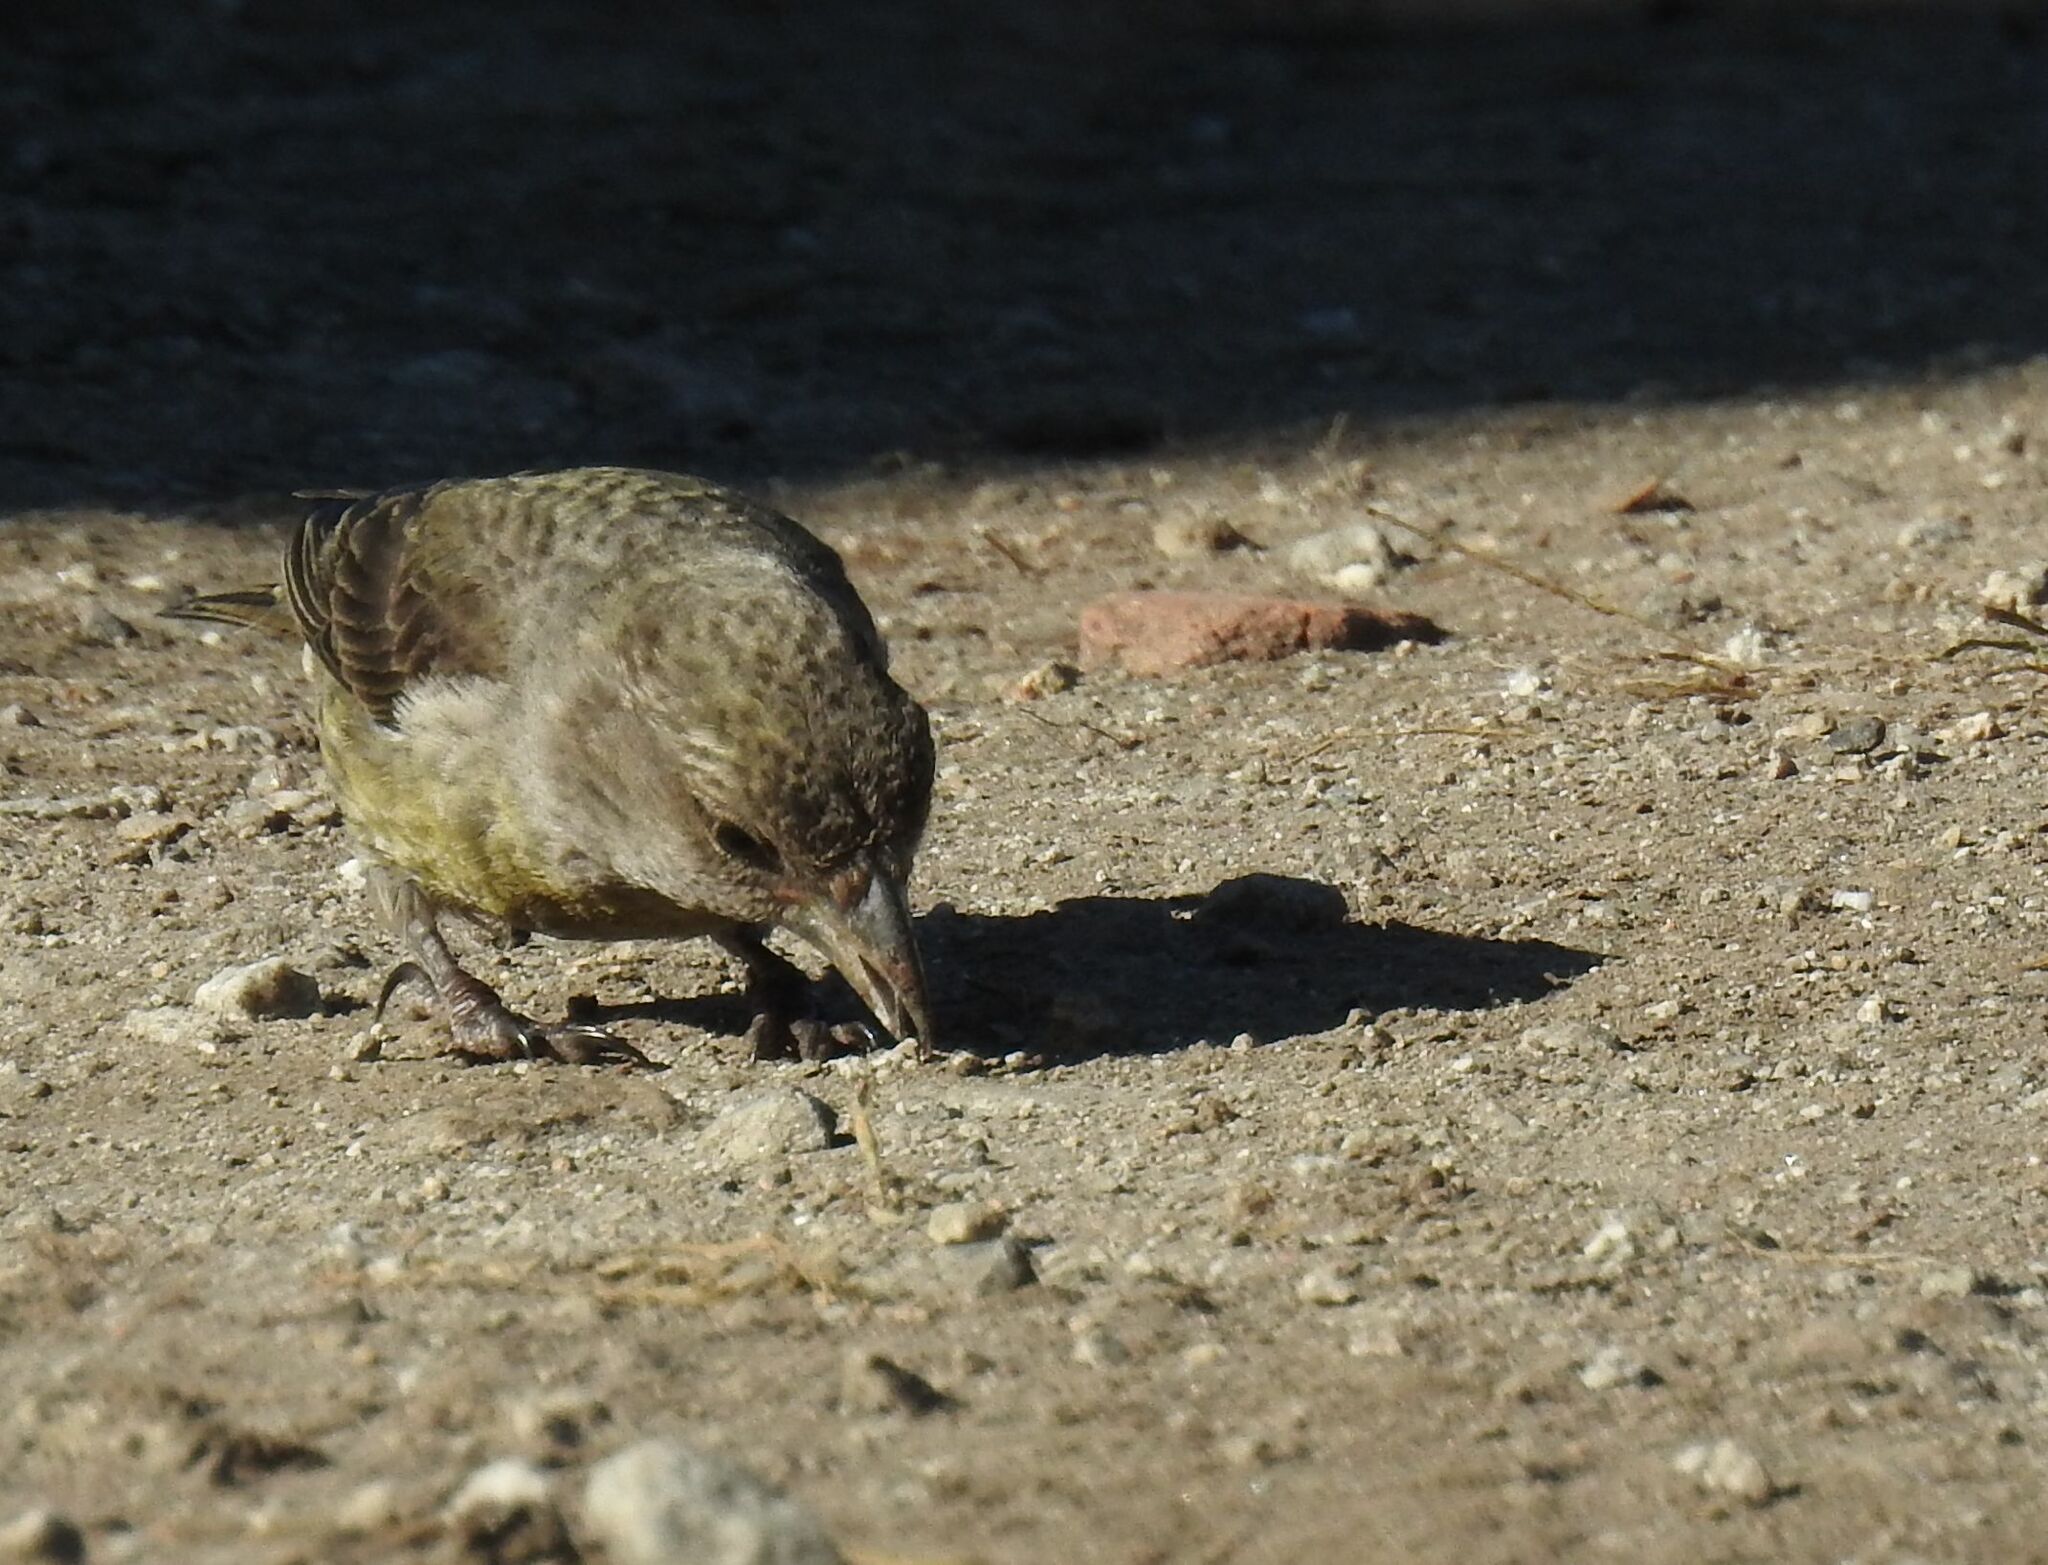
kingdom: Animalia
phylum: Chordata
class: Aves
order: Passeriformes
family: Fringillidae
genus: Loxia
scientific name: Loxia curvirostra
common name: Red crossbill
